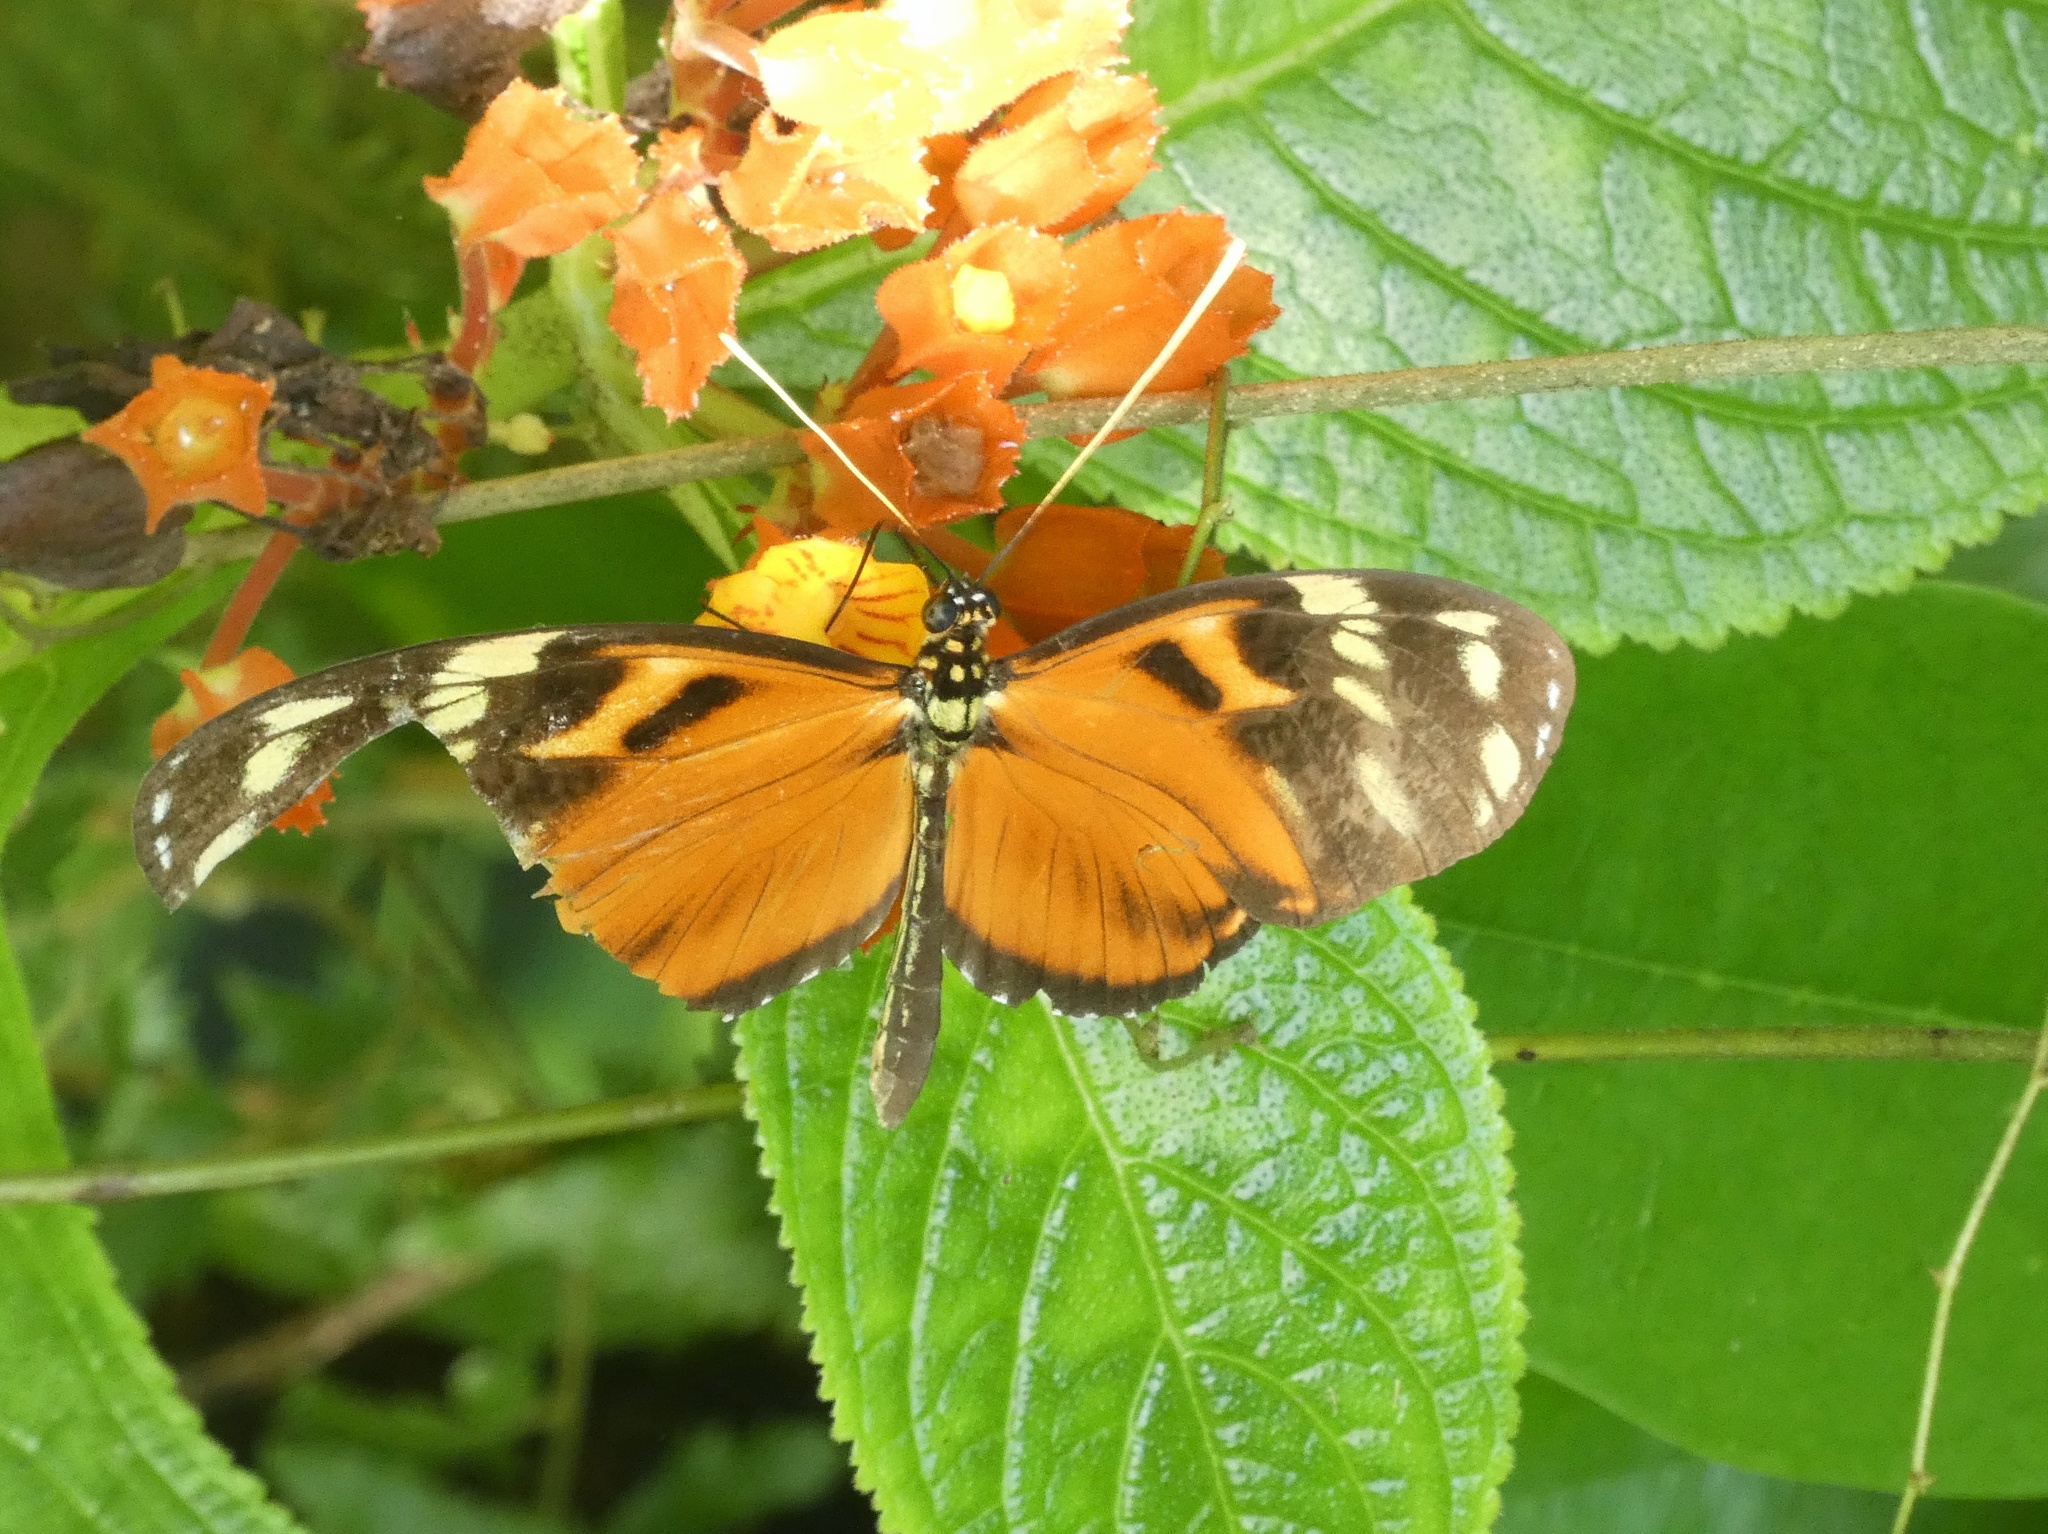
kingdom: Animalia
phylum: Arthropoda
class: Insecta
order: Lepidoptera
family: Nymphalidae
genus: Heliconius
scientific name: Heliconius ismenius
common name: Ismenius tiger
